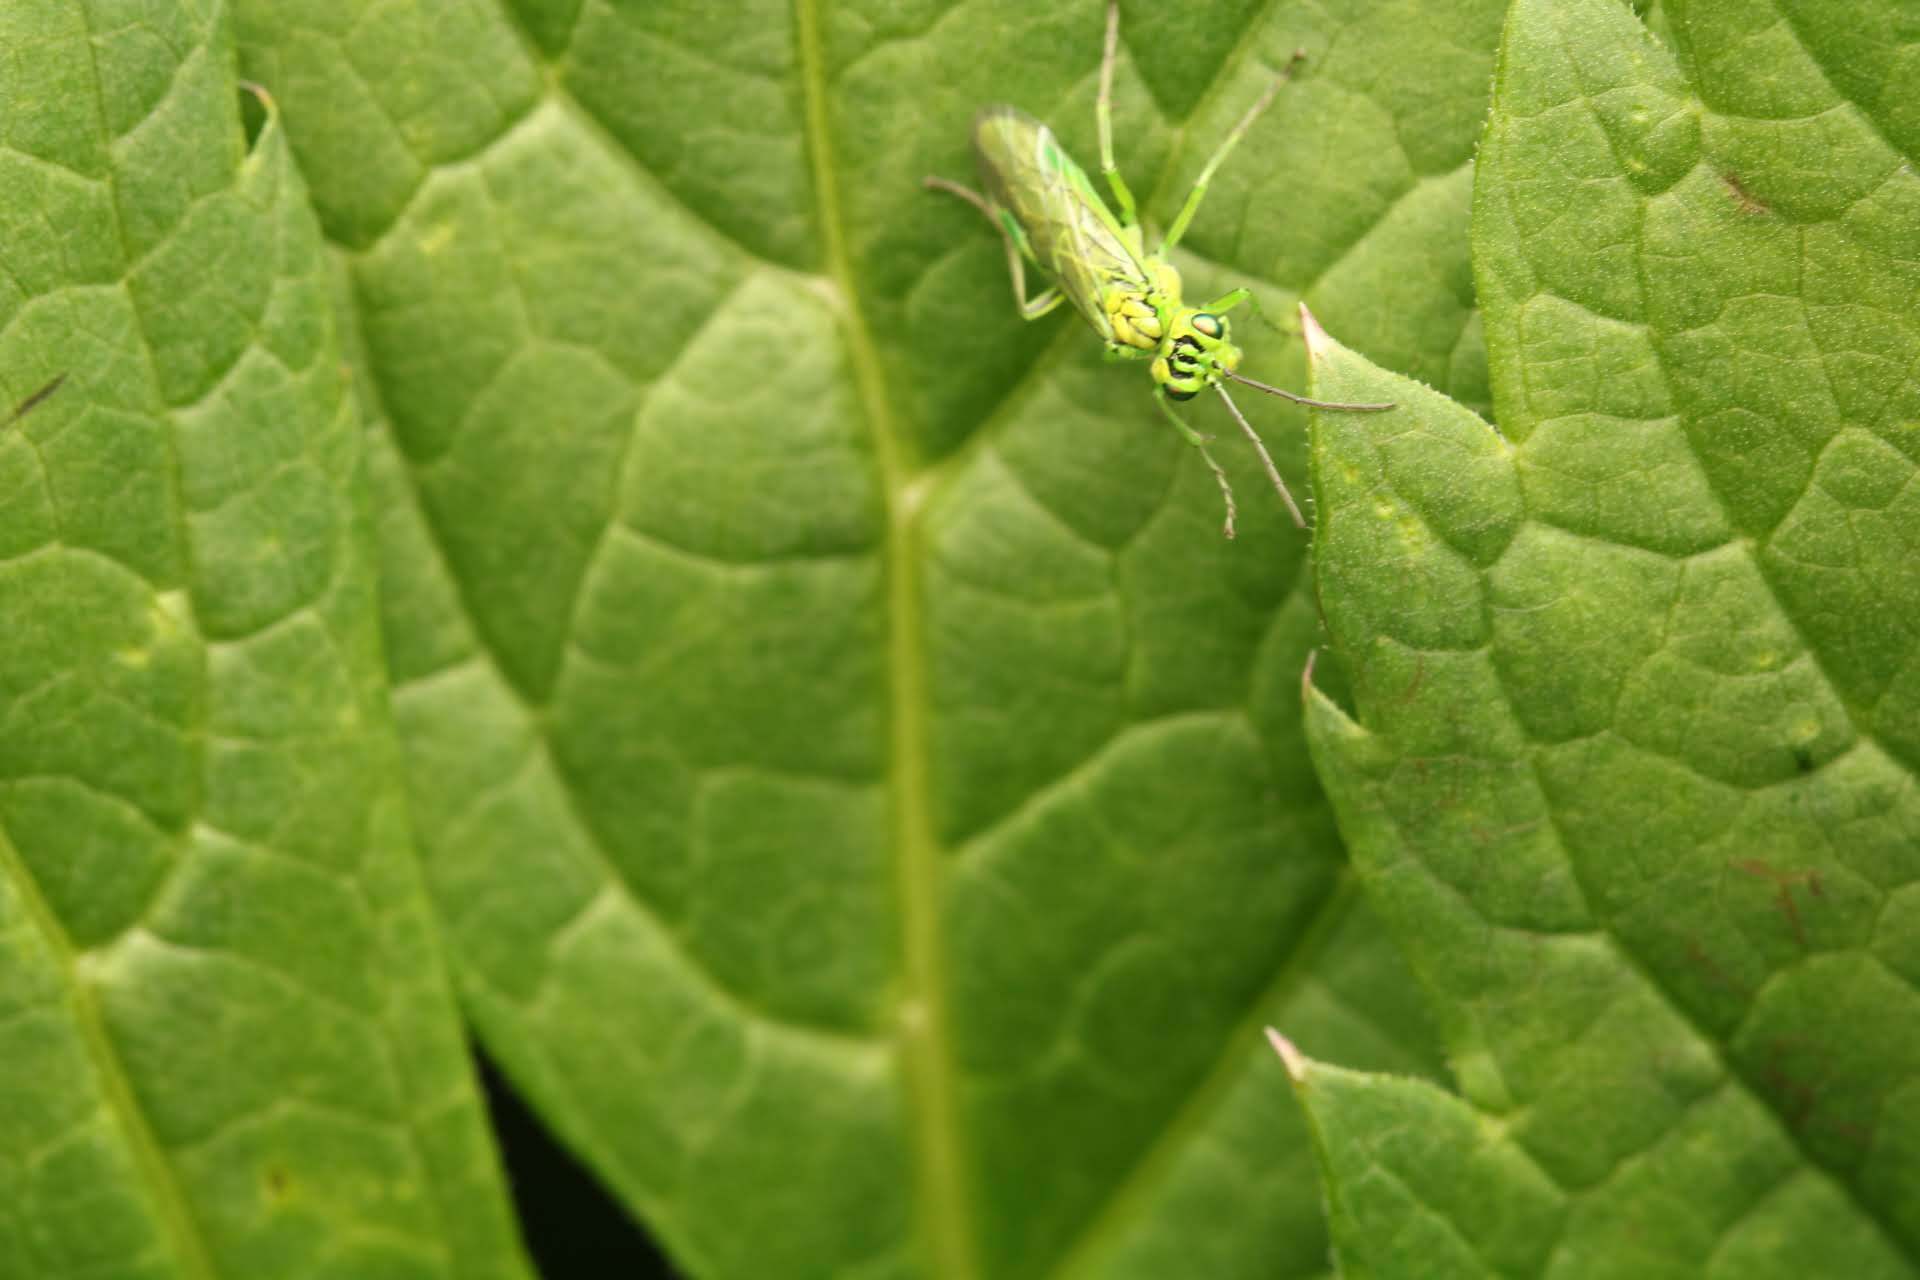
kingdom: Animalia
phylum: Arthropoda
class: Insecta
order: Hymenoptera
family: Tenthredinidae
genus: Rhogogaster
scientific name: Rhogogaster punctulata
